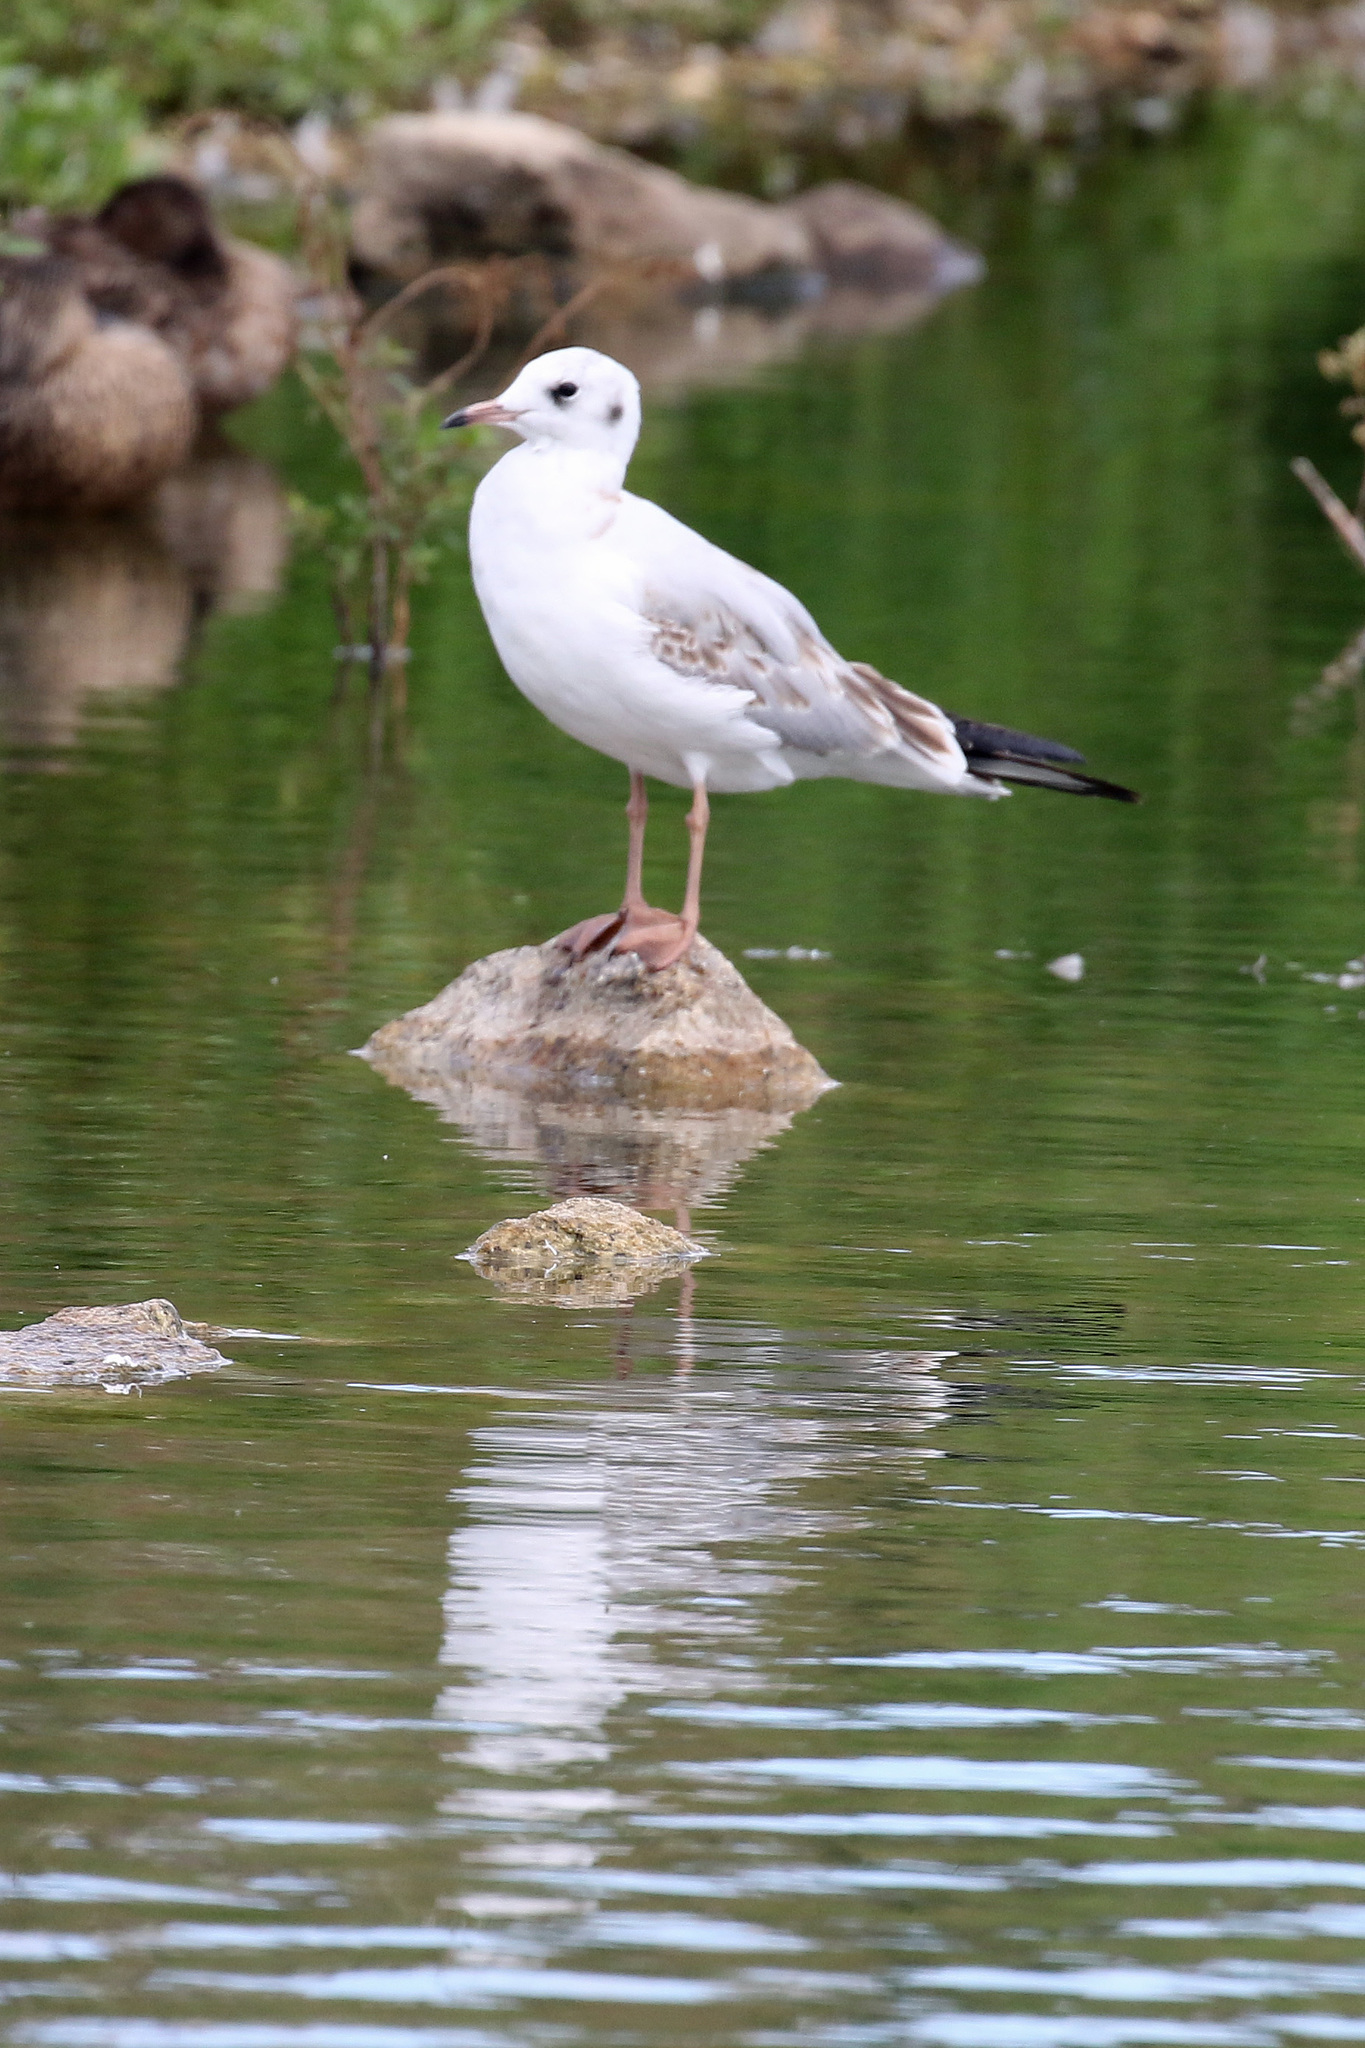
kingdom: Animalia
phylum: Chordata
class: Aves
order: Charadriiformes
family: Laridae
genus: Chroicocephalus
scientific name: Chroicocephalus ridibundus
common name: Black-headed gull
